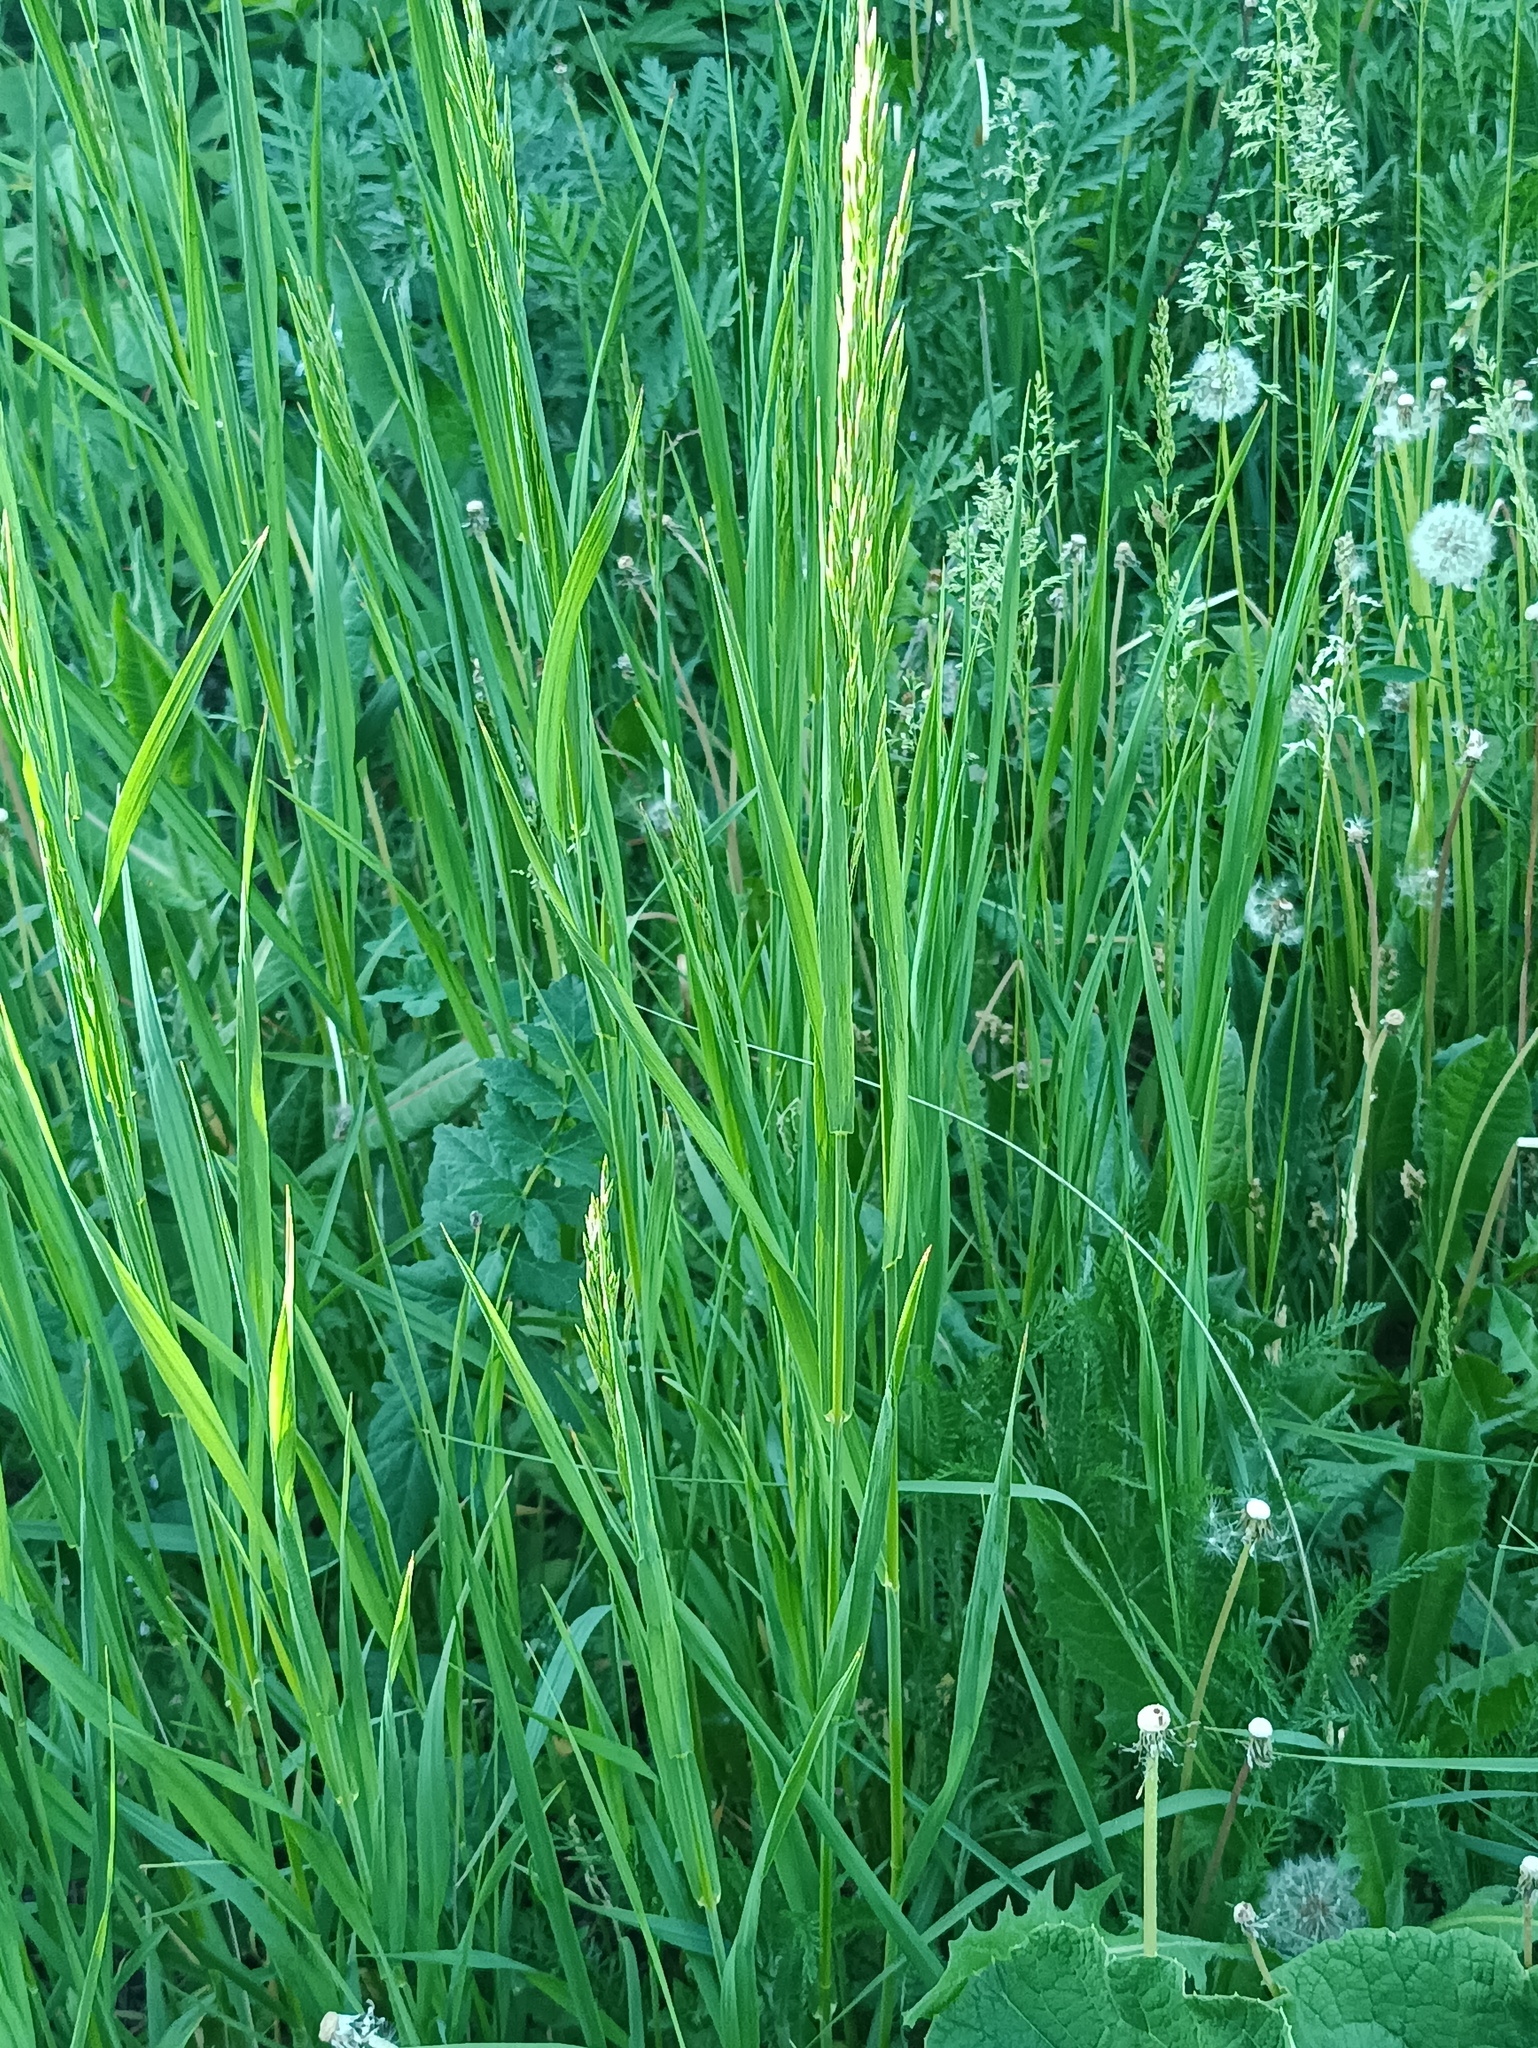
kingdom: Plantae
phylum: Tracheophyta
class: Liliopsida
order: Poales
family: Poaceae
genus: Bromus
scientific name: Bromus inermis
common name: Smooth brome
